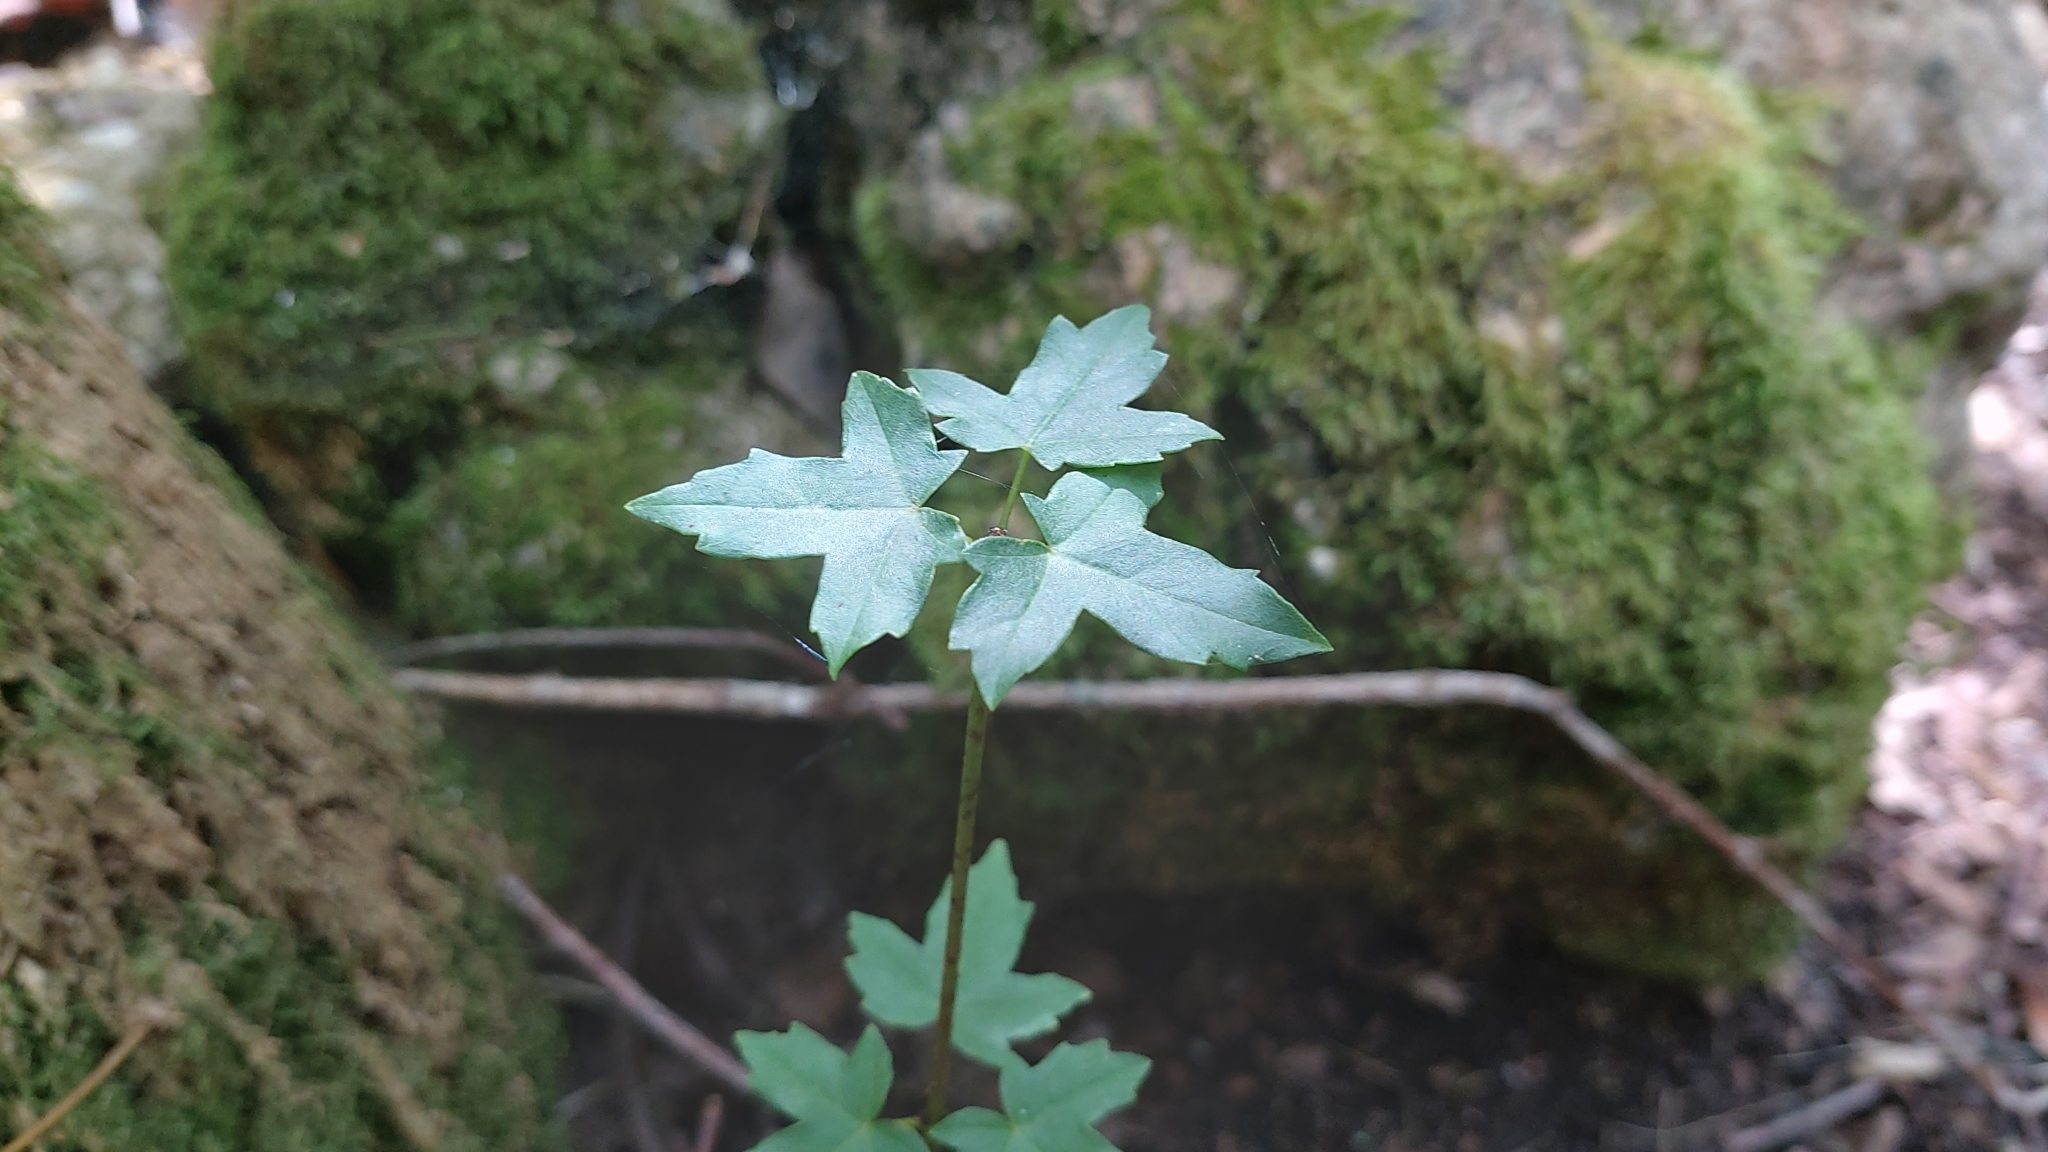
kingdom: Plantae
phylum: Tracheophyta
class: Magnoliopsida
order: Sapindales
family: Sapindaceae
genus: Acer
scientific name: Acer campestre
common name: Field maple
